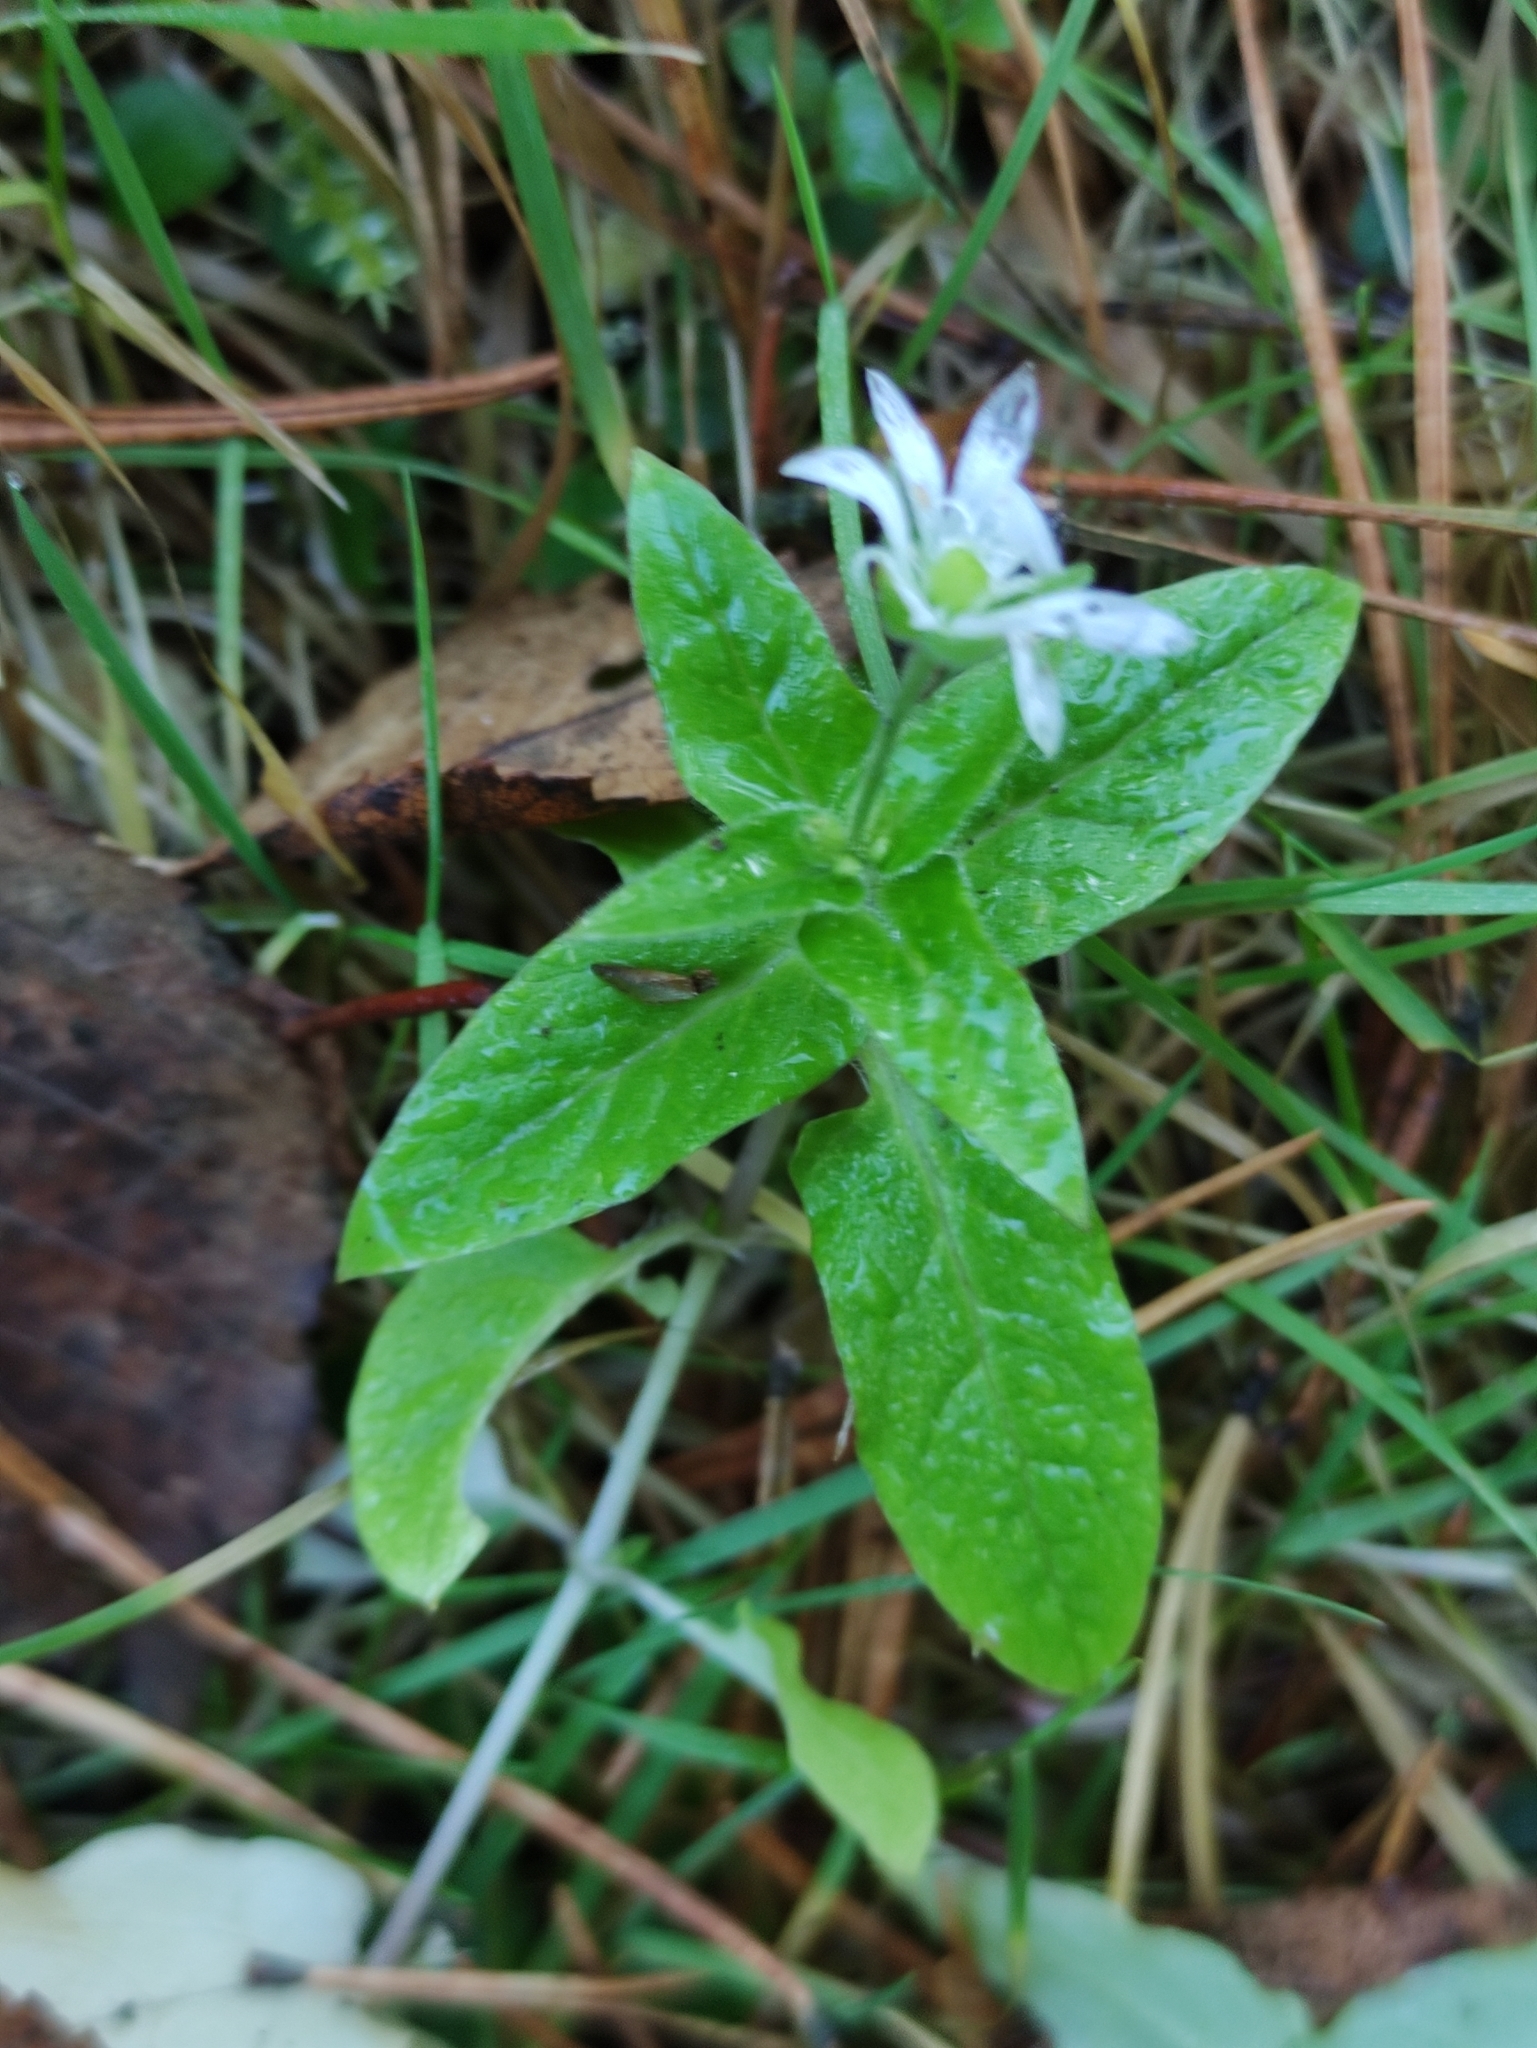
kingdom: Plantae
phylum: Tracheophyta
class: Magnoliopsida
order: Caryophyllales
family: Caryophyllaceae
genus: Stellaria
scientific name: Stellaria aquatica
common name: Water chickweed
